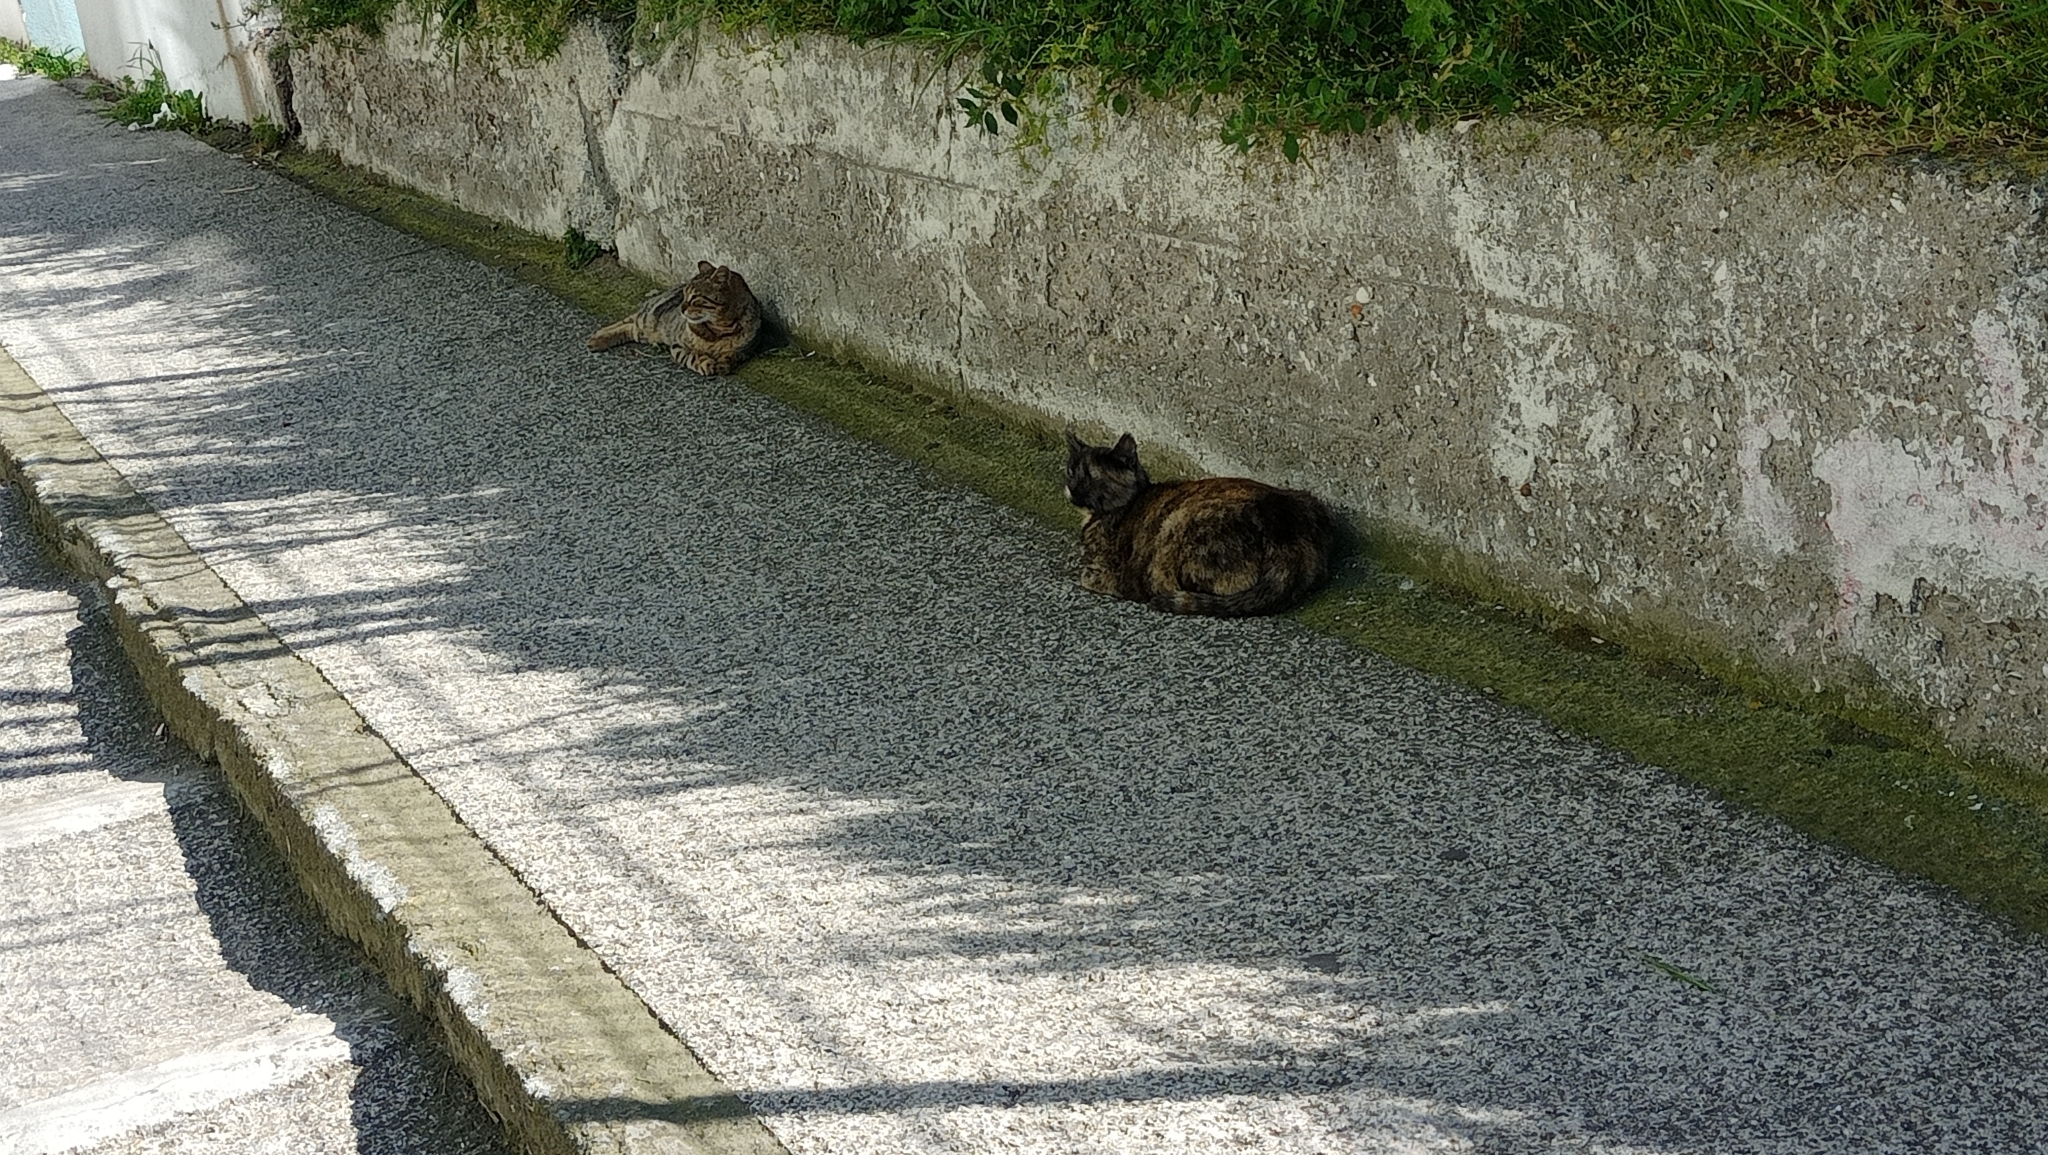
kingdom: Animalia
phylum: Chordata
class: Mammalia
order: Carnivora
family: Felidae
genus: Felis
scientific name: Felis catus
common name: Domestic cat
